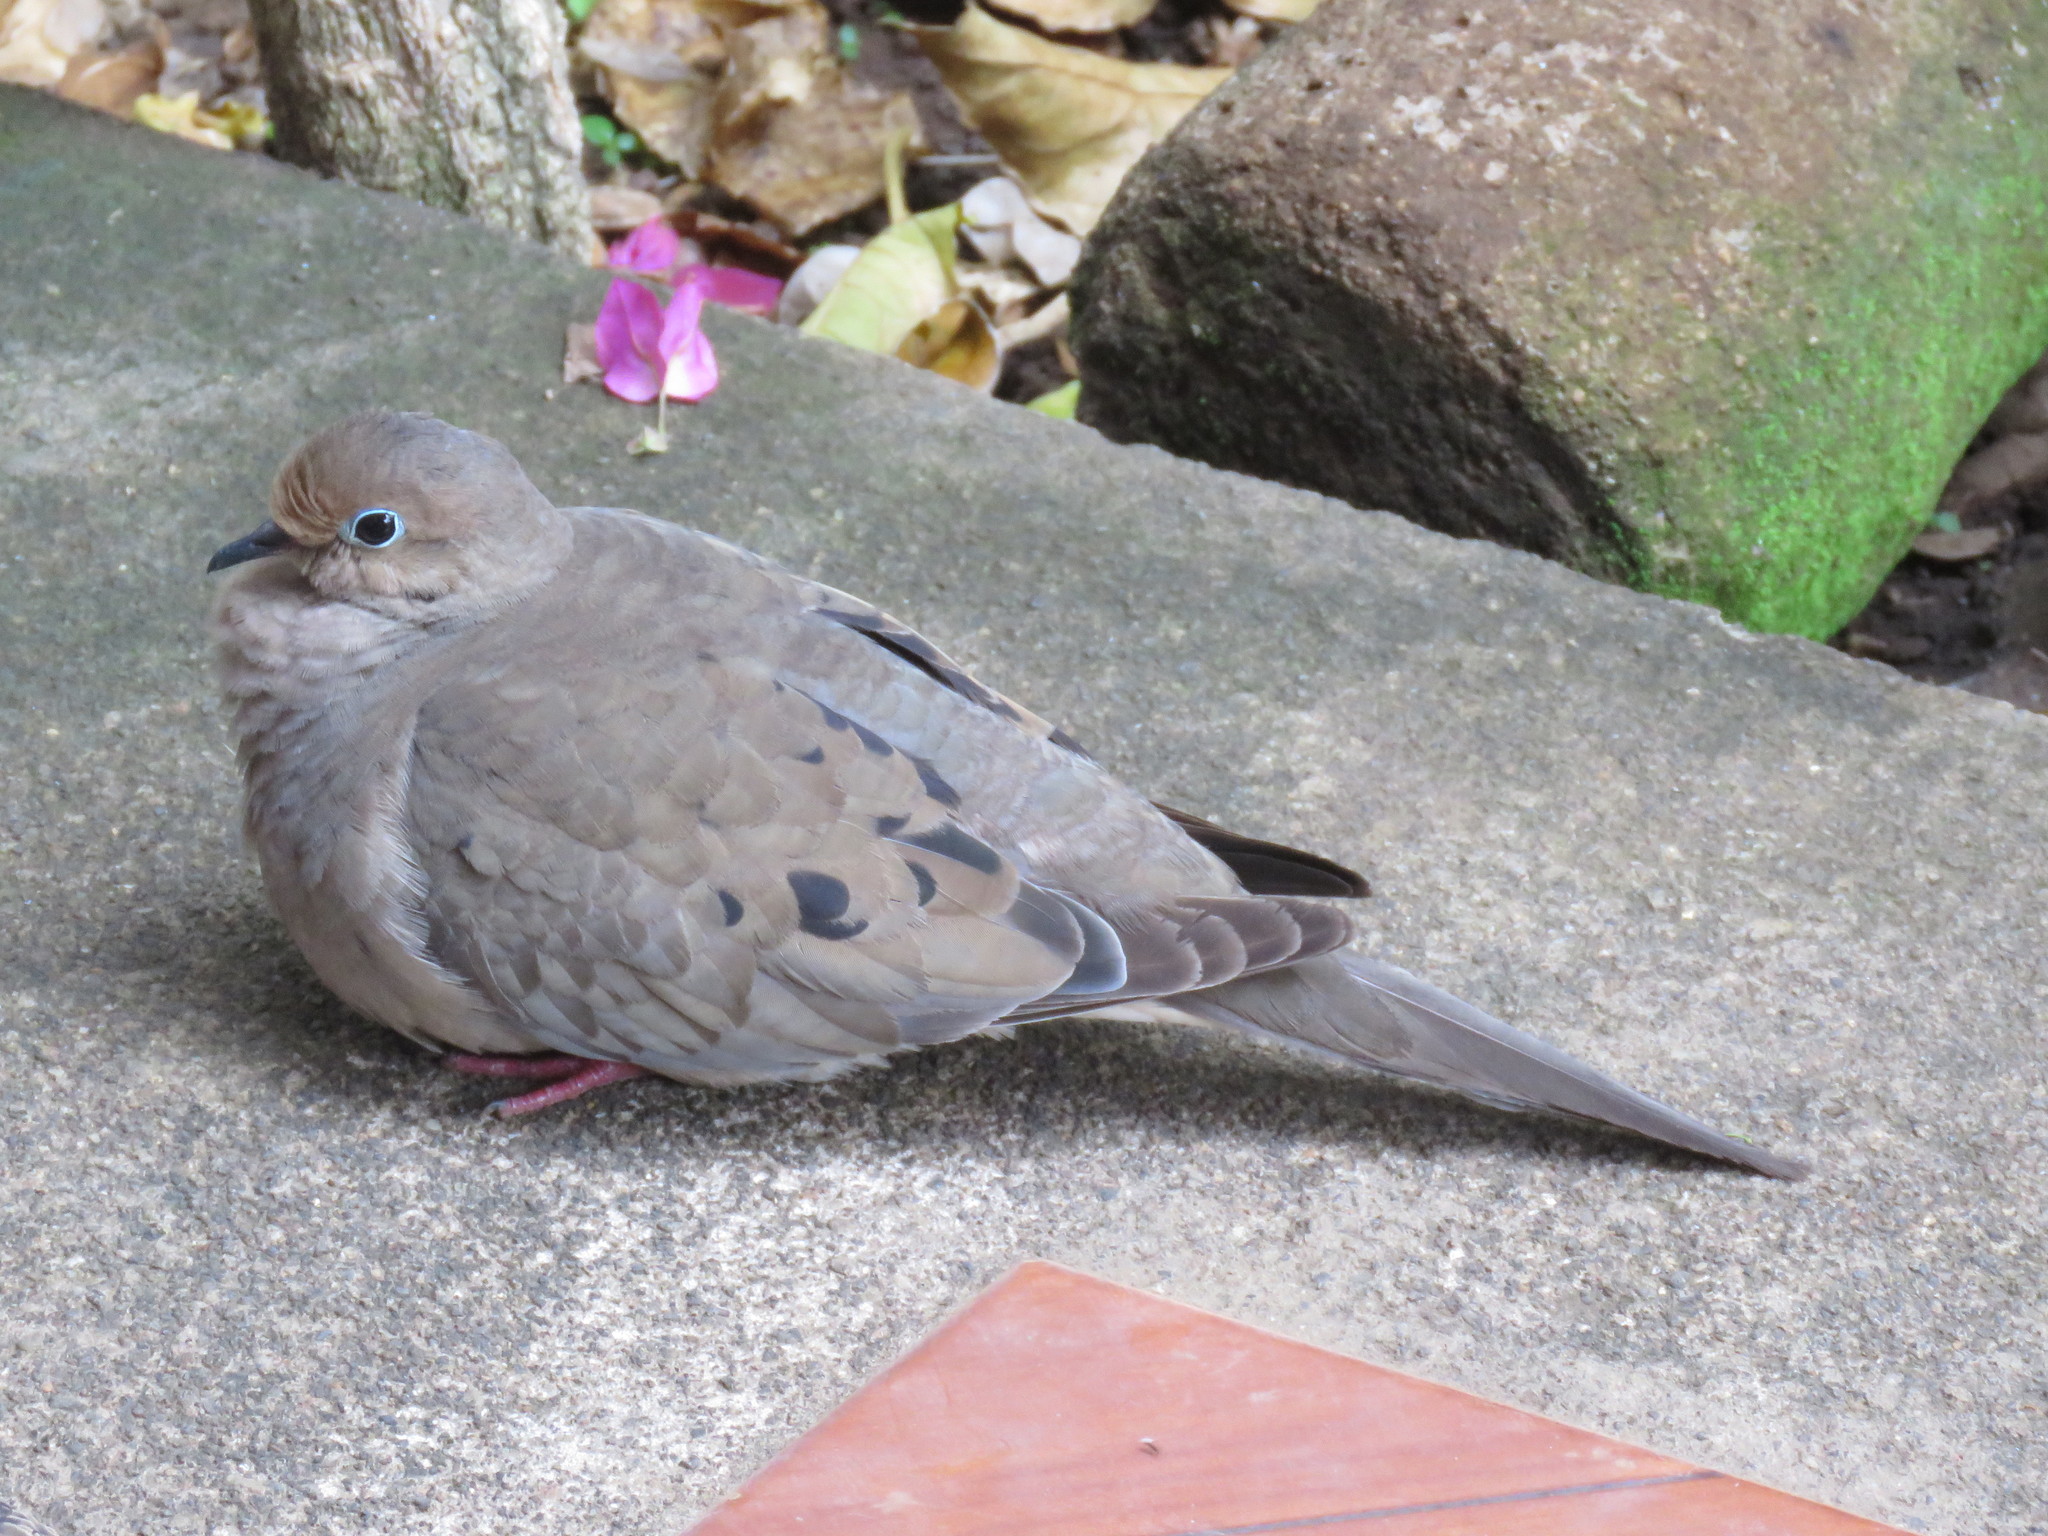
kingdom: Animalia
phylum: Chordata
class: Aves
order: Columbiformes
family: Columbidae
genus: Zenaida
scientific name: Zenaida macroura
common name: Mourning dove
